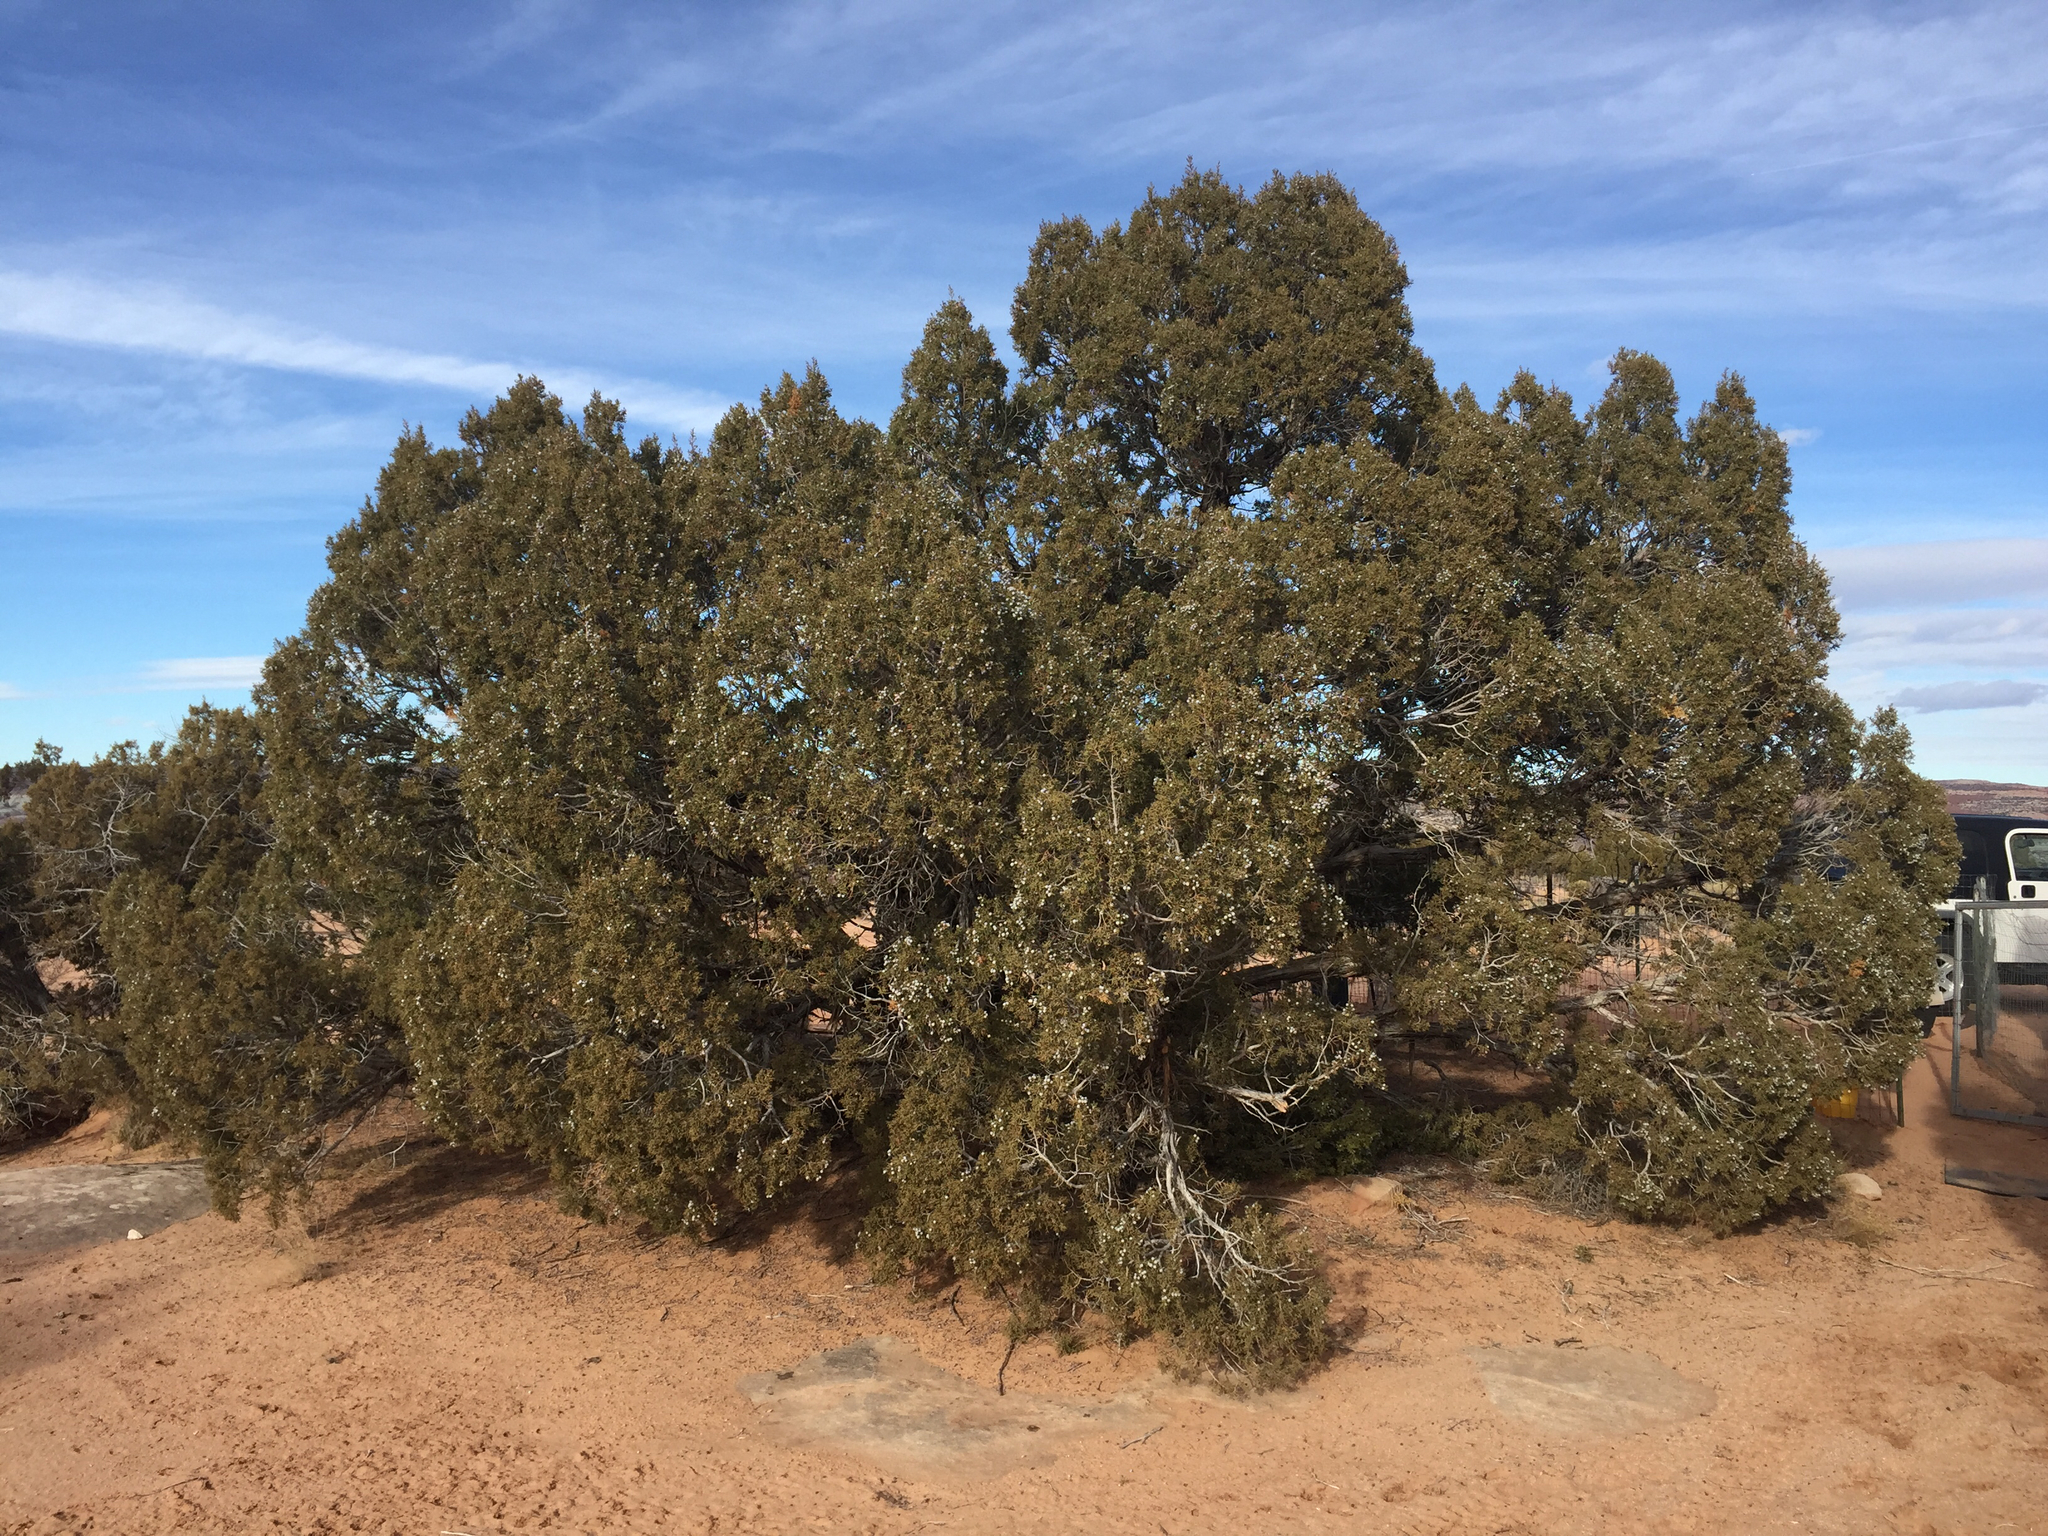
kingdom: Plantae
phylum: Tracheophyta
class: Pinopsida
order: Pinales
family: Cupressaceae
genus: Juniperus
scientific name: Juniperus osteosperma
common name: Utah juniper
